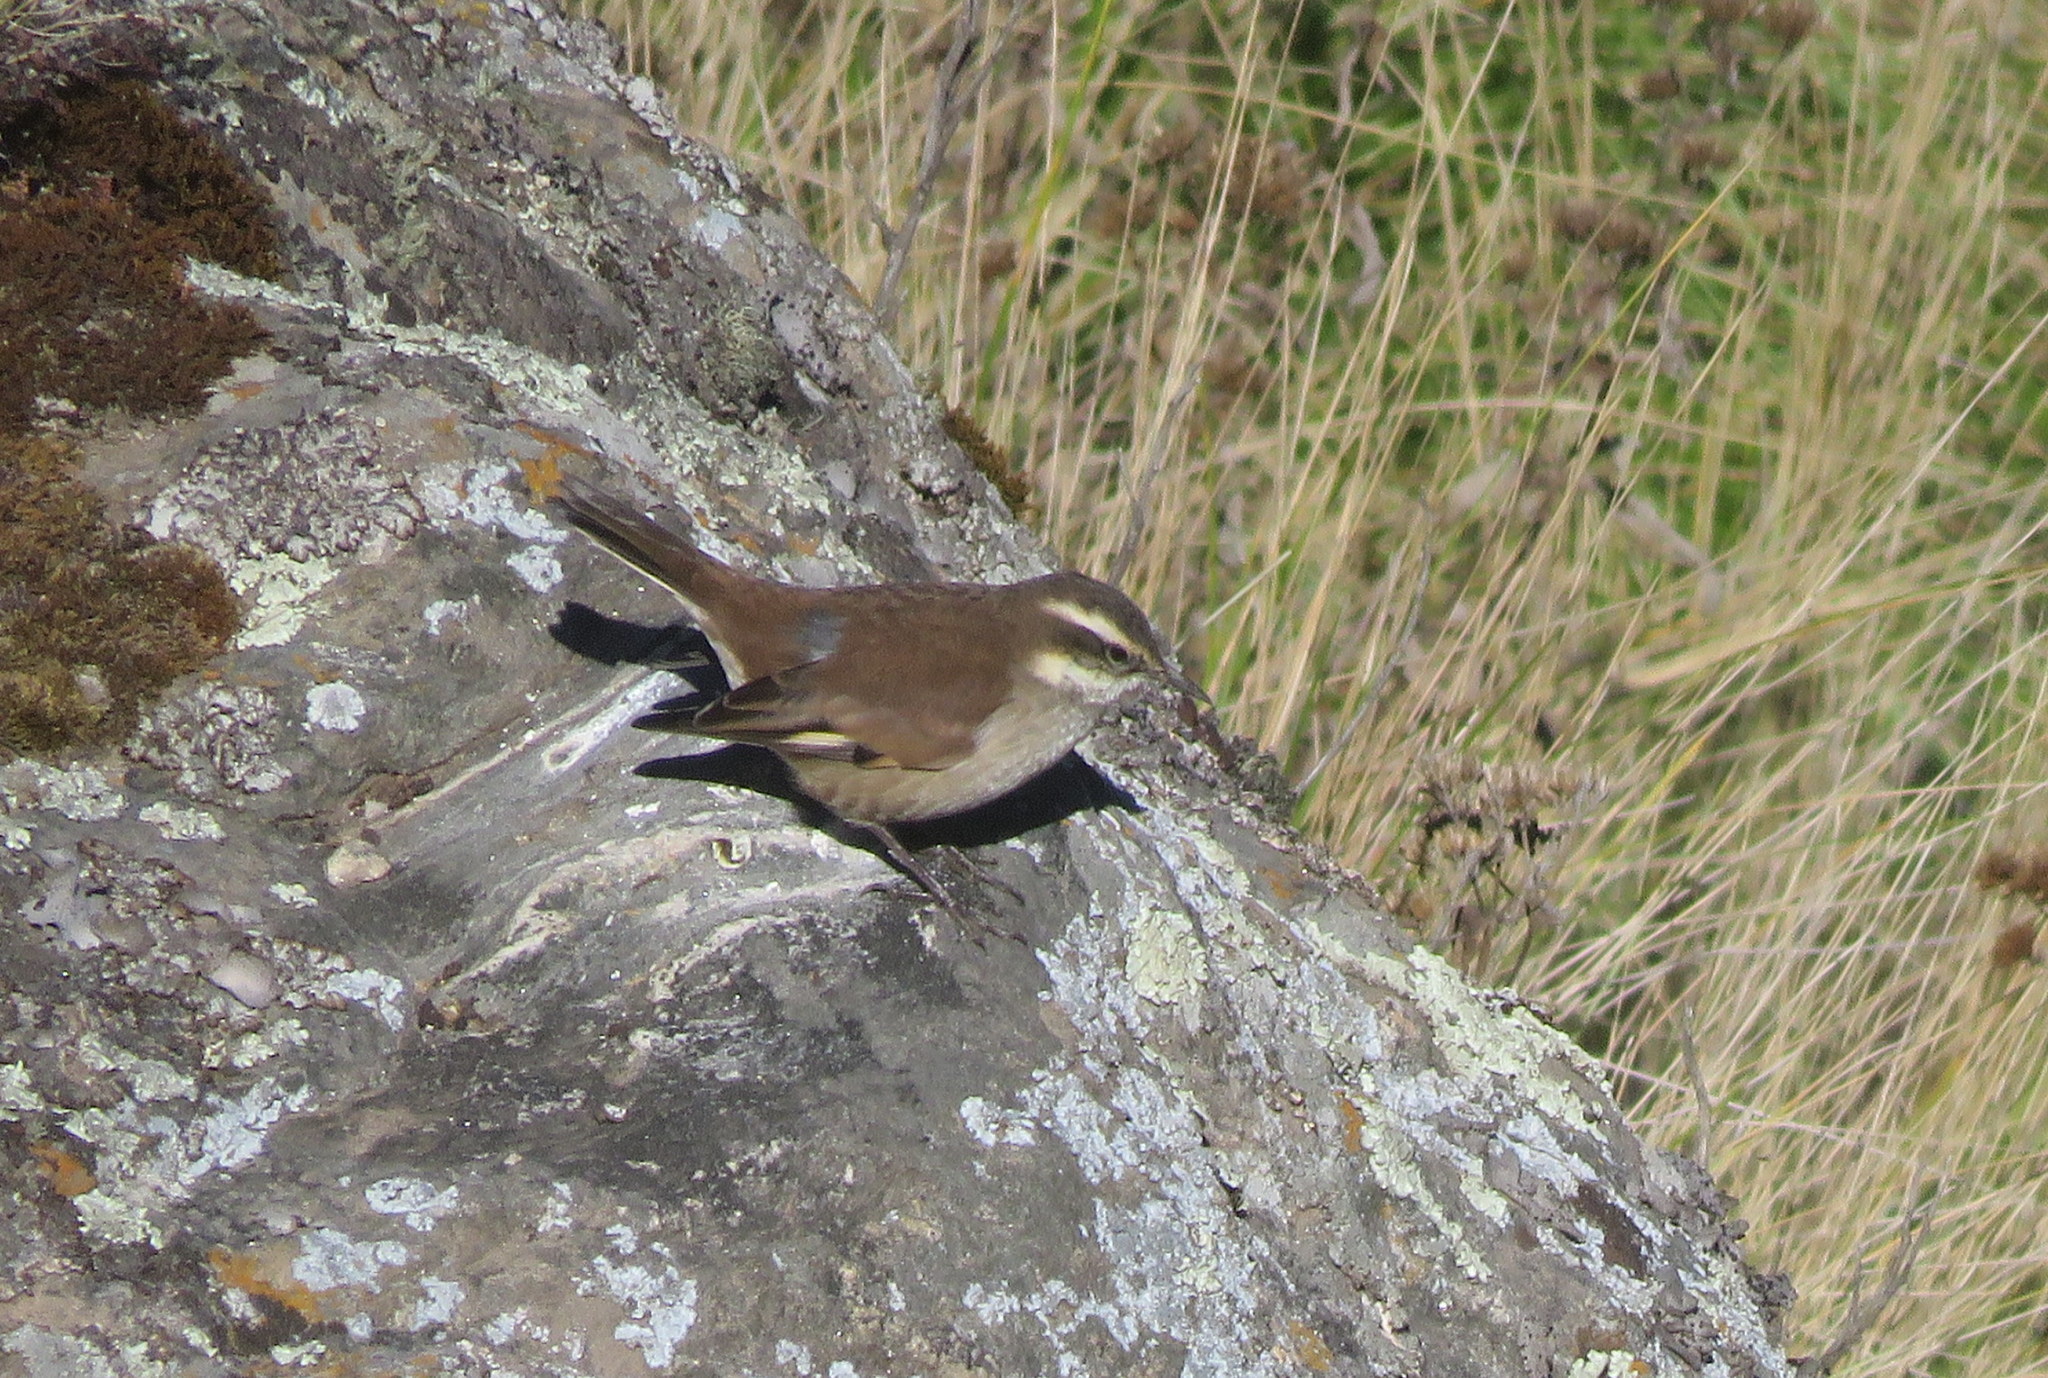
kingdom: Animalia
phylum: Chordata
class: Aves
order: Passeriformes
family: Furnariidae
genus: Cinclodes
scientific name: Cinclodes fuscus
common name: Buff-winged cinclodes
